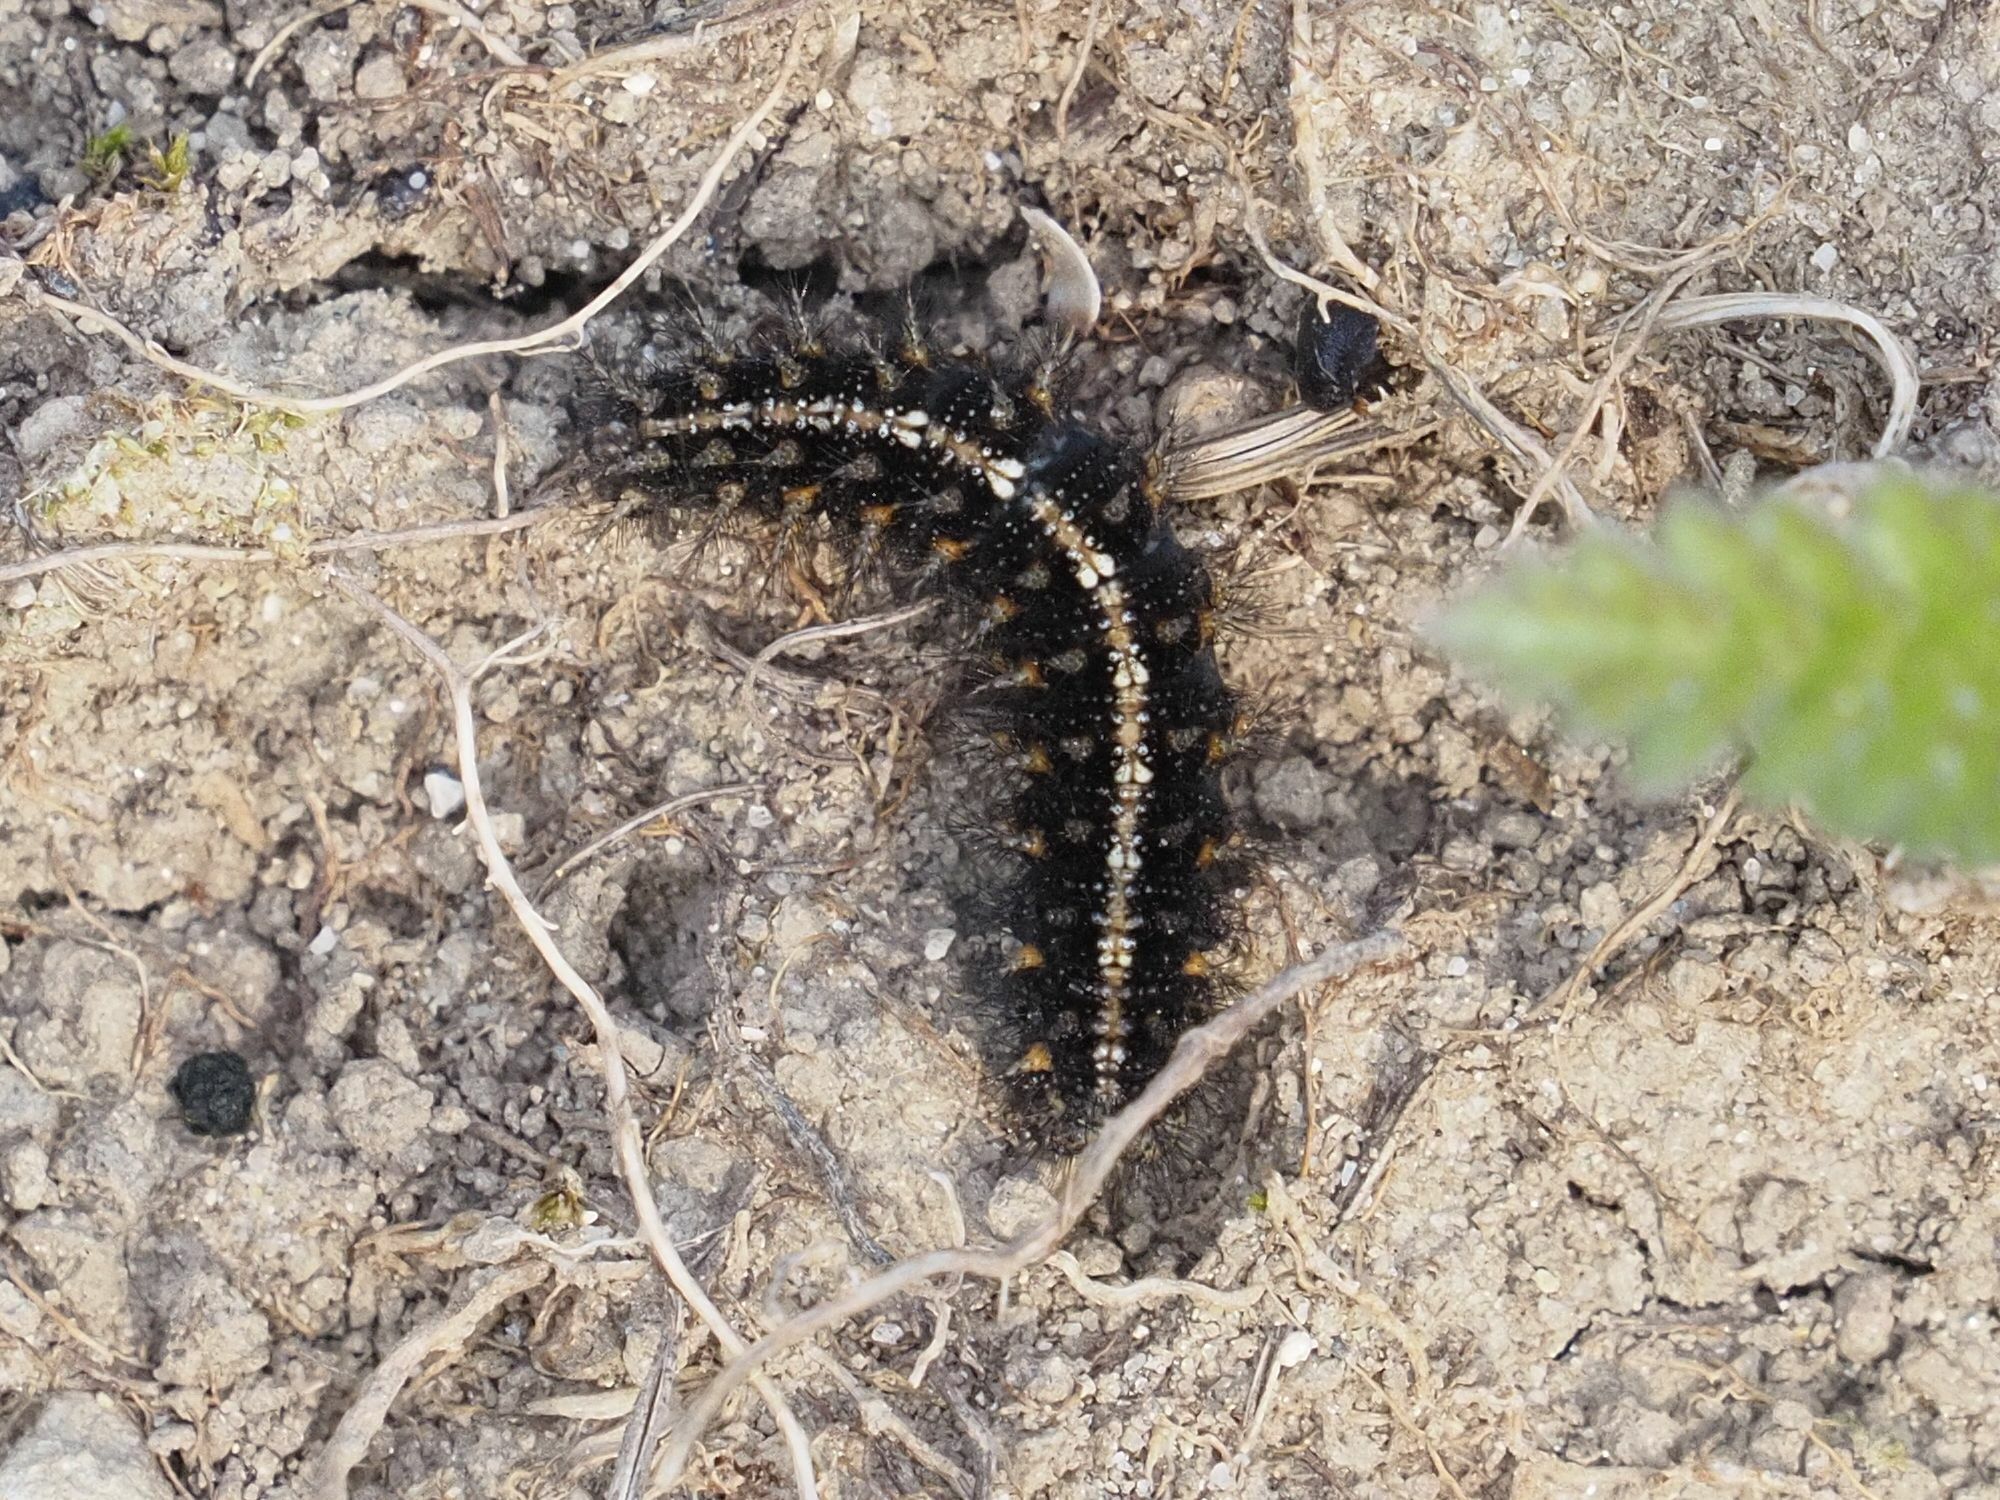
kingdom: Animalia
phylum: Arthropoda
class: Insecta
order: Lepidoptera
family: Nymphalidae
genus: Issoria
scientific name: Issoria lathonia
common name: Queen of spain fritillary
